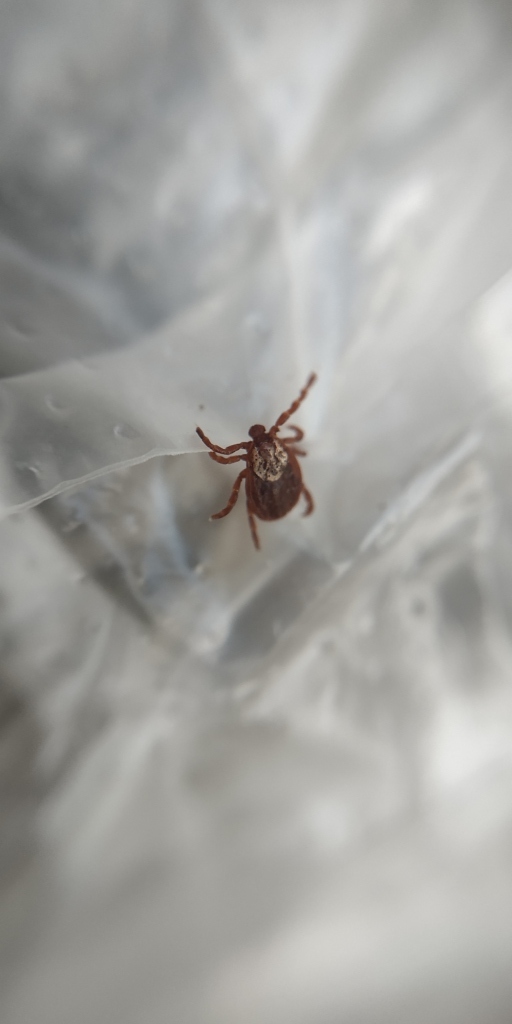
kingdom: Animalia
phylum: Arthropoda
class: Arachnida
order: Ixodida
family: Ixodidae
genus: Dermacentor
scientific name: Dermacentor reticulatus
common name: Ornate cow tick
